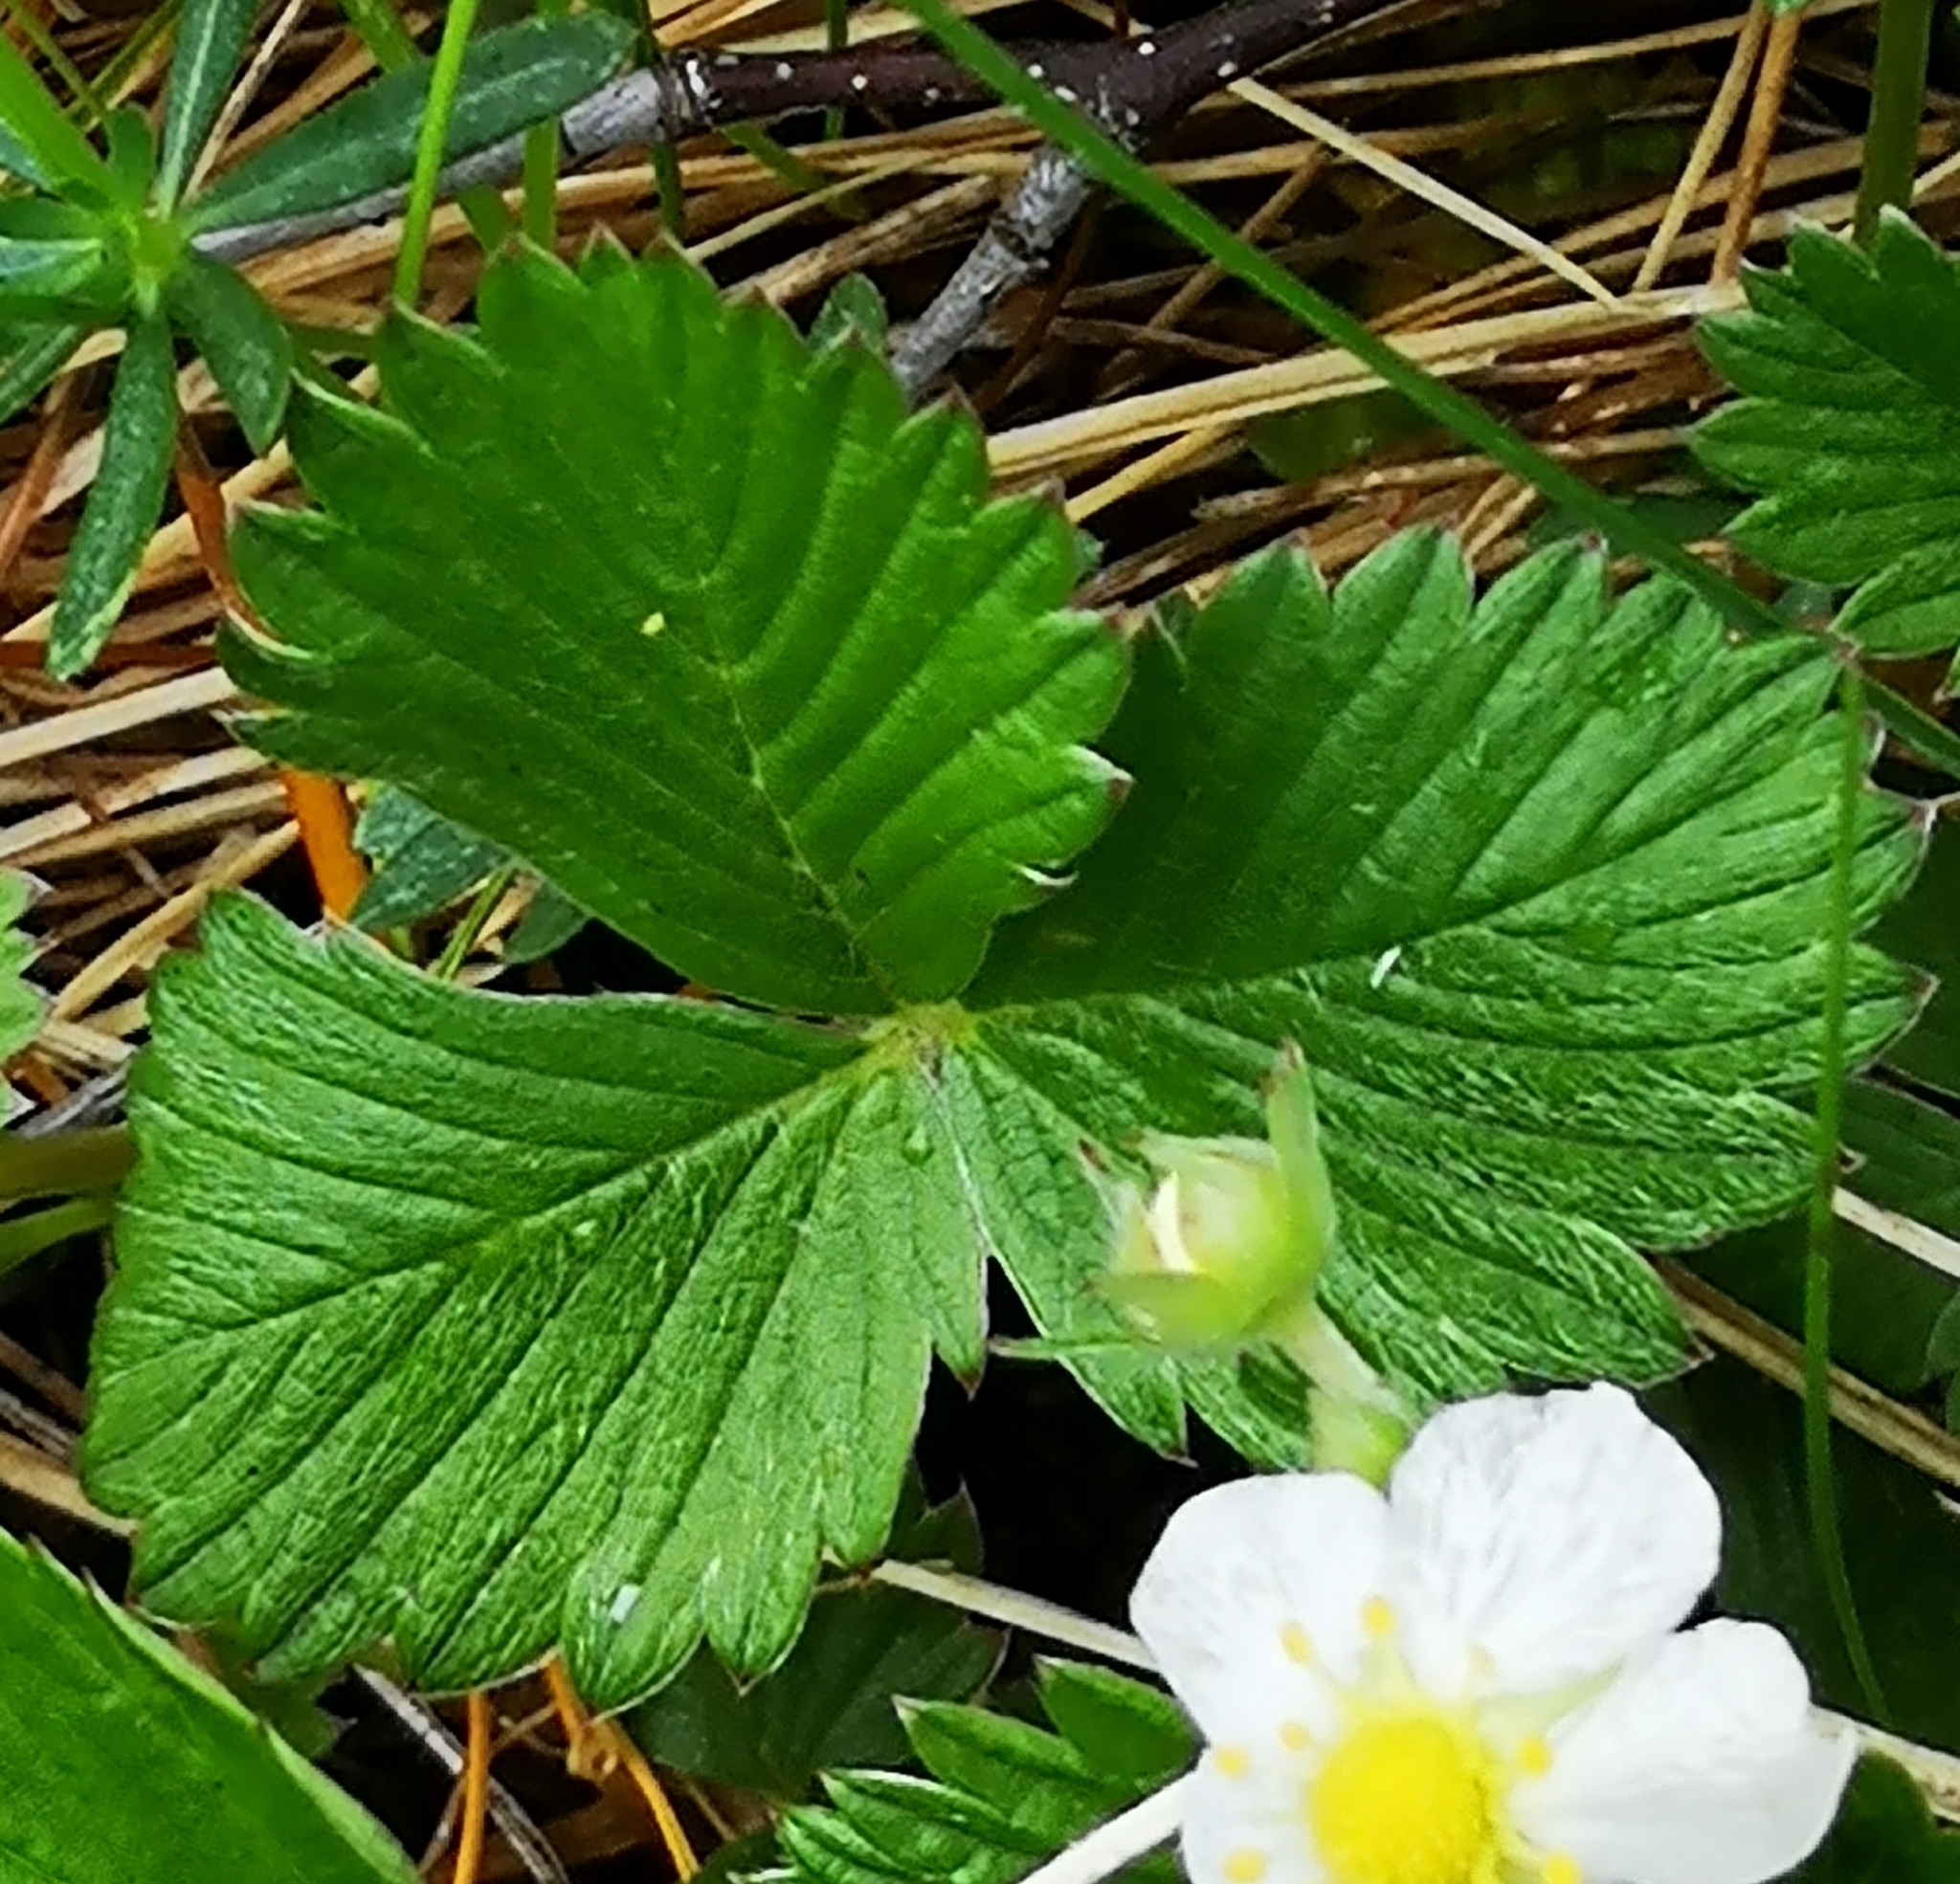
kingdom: Plantae
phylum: Tracheophyta
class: Magnoliopsida
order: Rosales
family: Rosaceae
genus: Fragaria
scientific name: Fragaria vesca
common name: Wild strawberry
